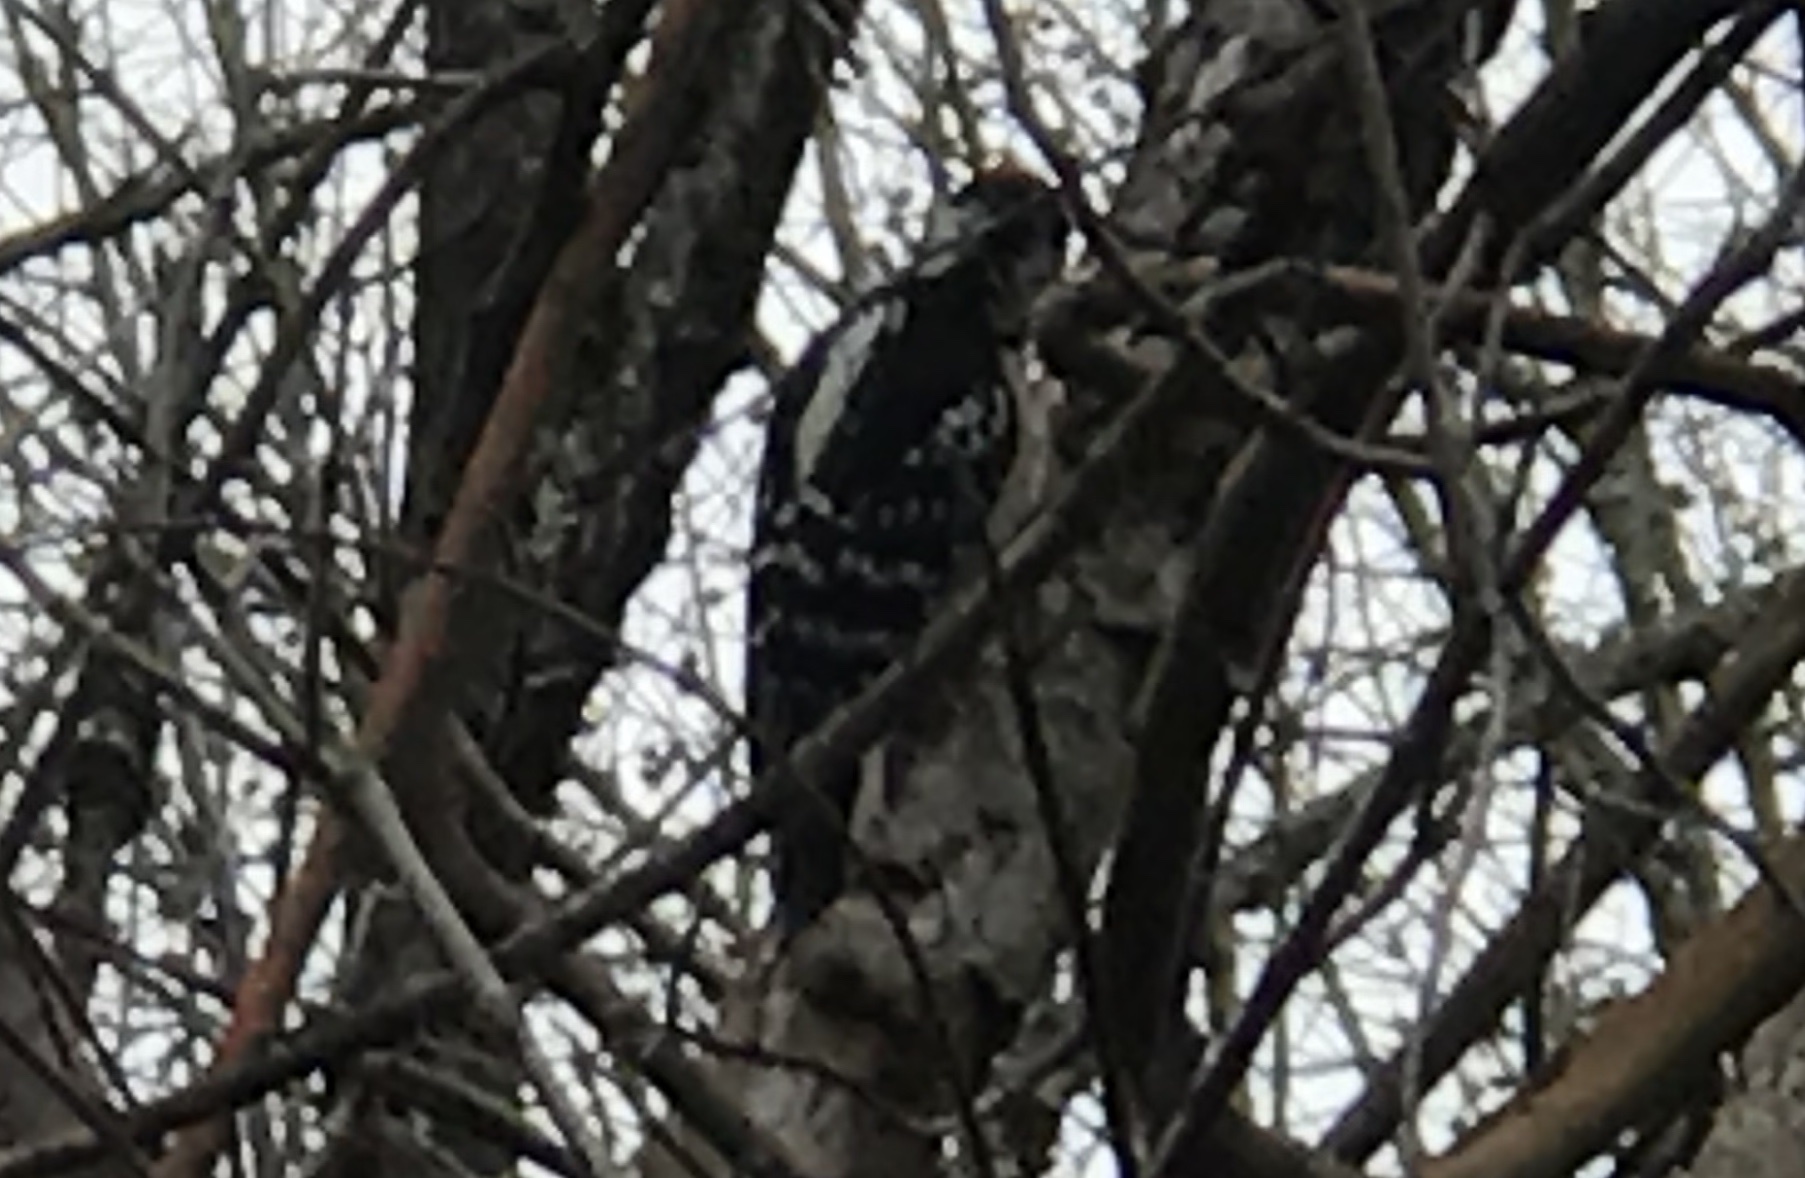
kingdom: Animalia
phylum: Chordata
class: Aves
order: Piciformes
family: Picidae
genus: Dryobates
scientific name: Dryobates pubescens
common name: Downy woodpecker
